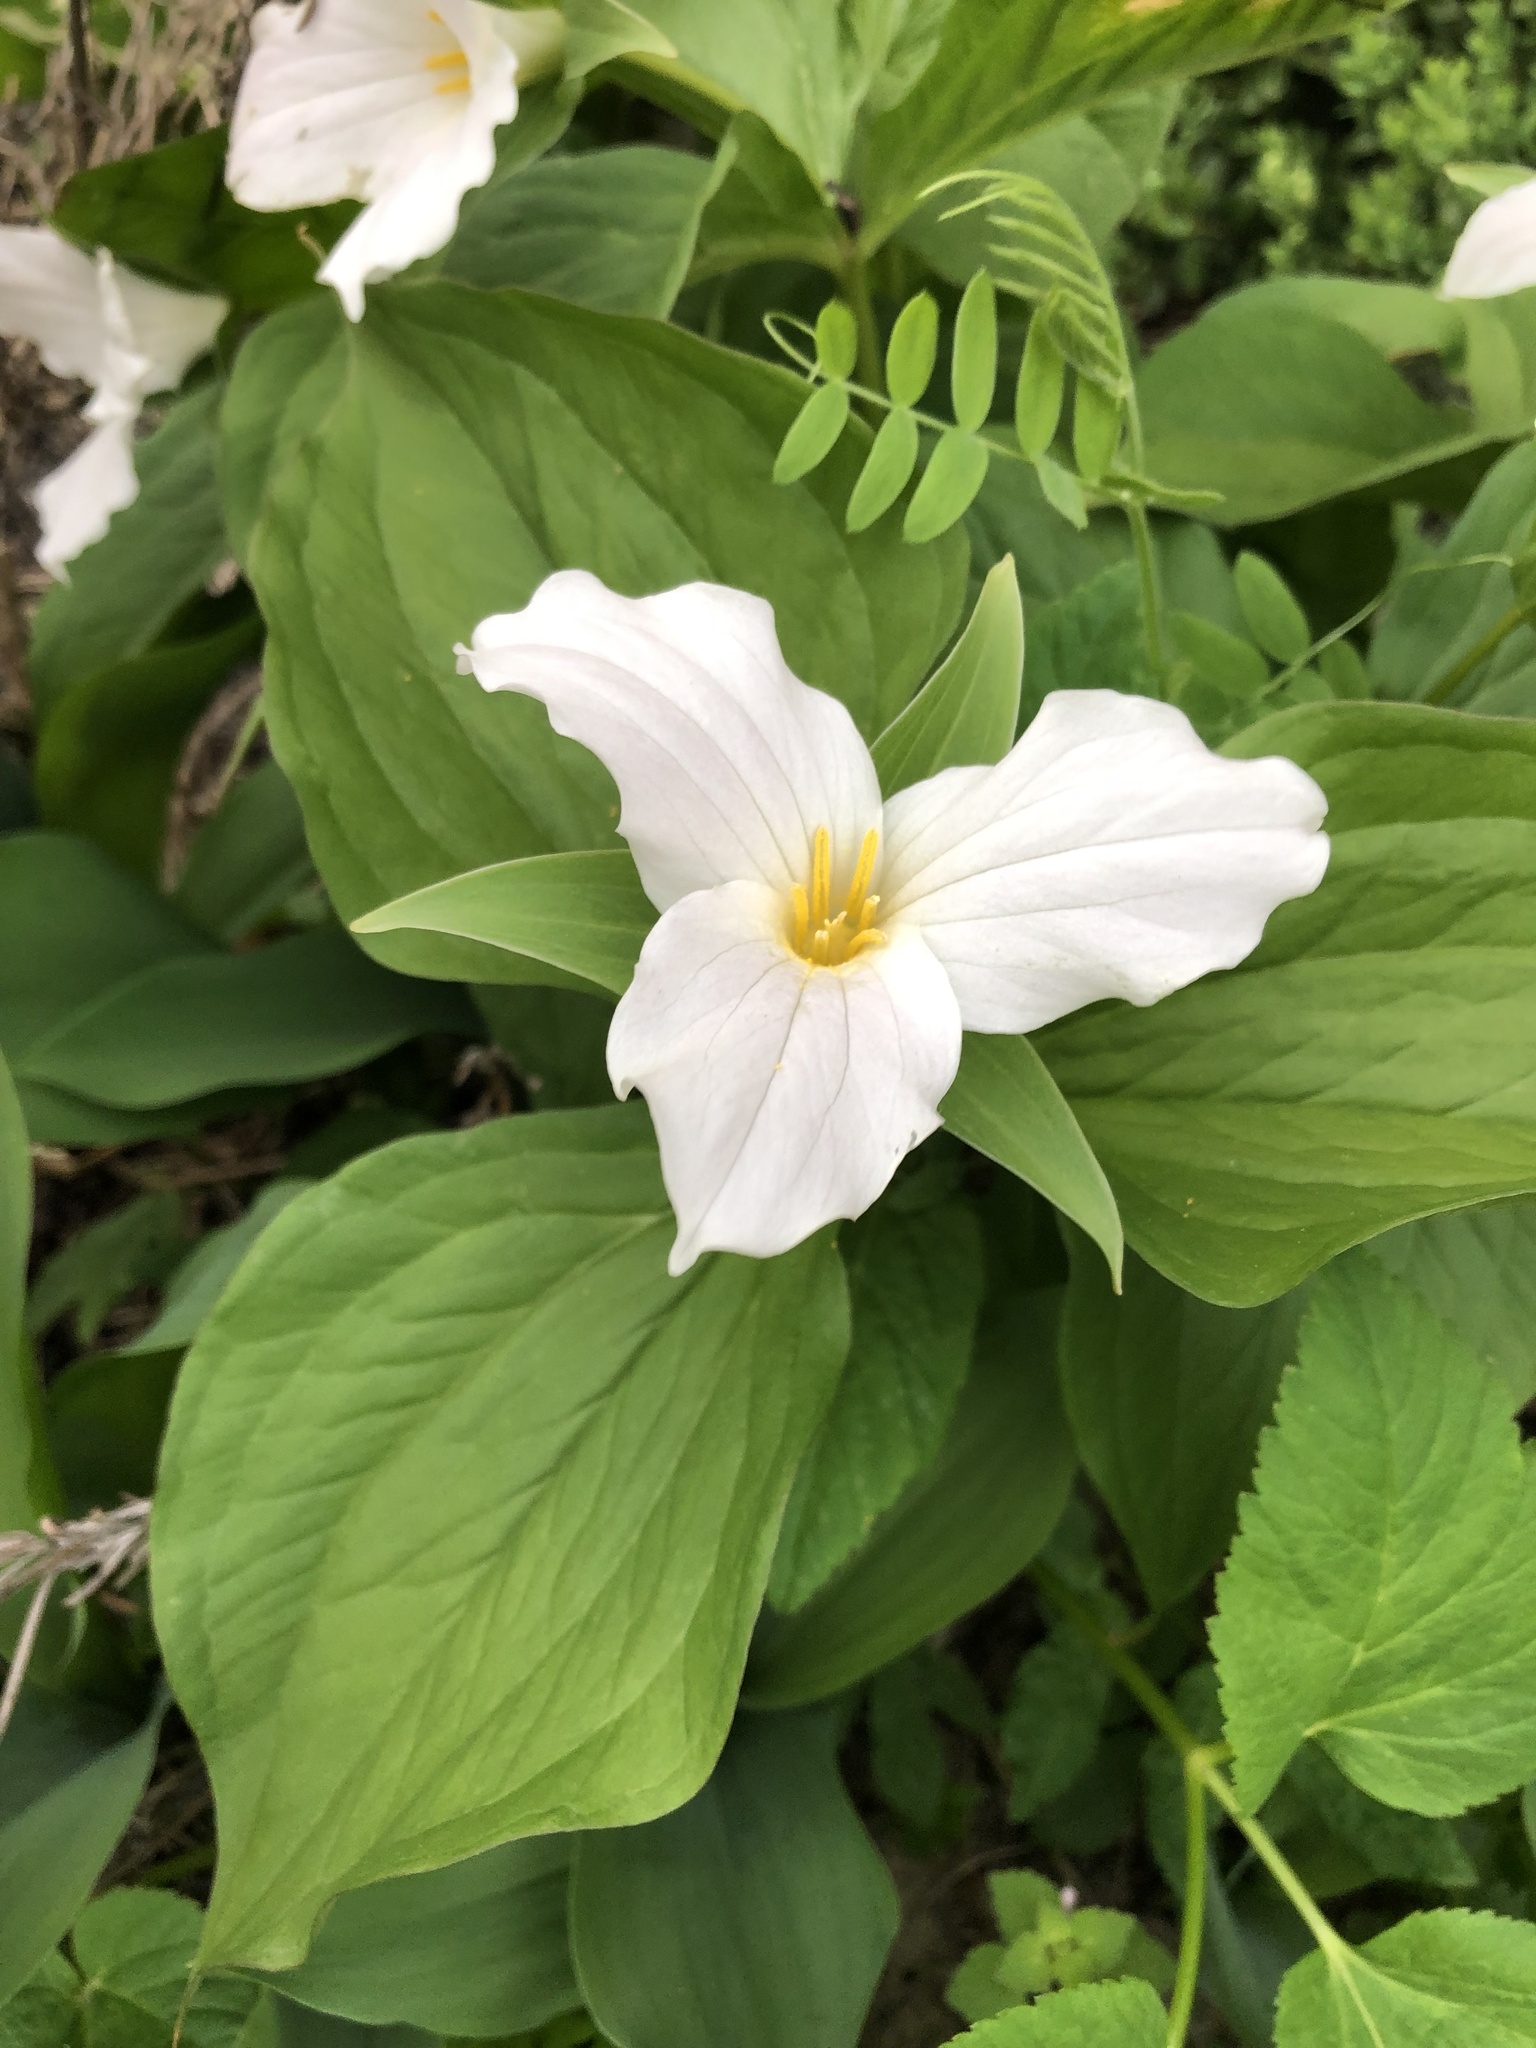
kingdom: Plantae
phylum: Tracheophyta
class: Liliopsida
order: Liliales
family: Melanthiaceae
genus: Trillium
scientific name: Trillium grandiflorum
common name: Great white trillium
